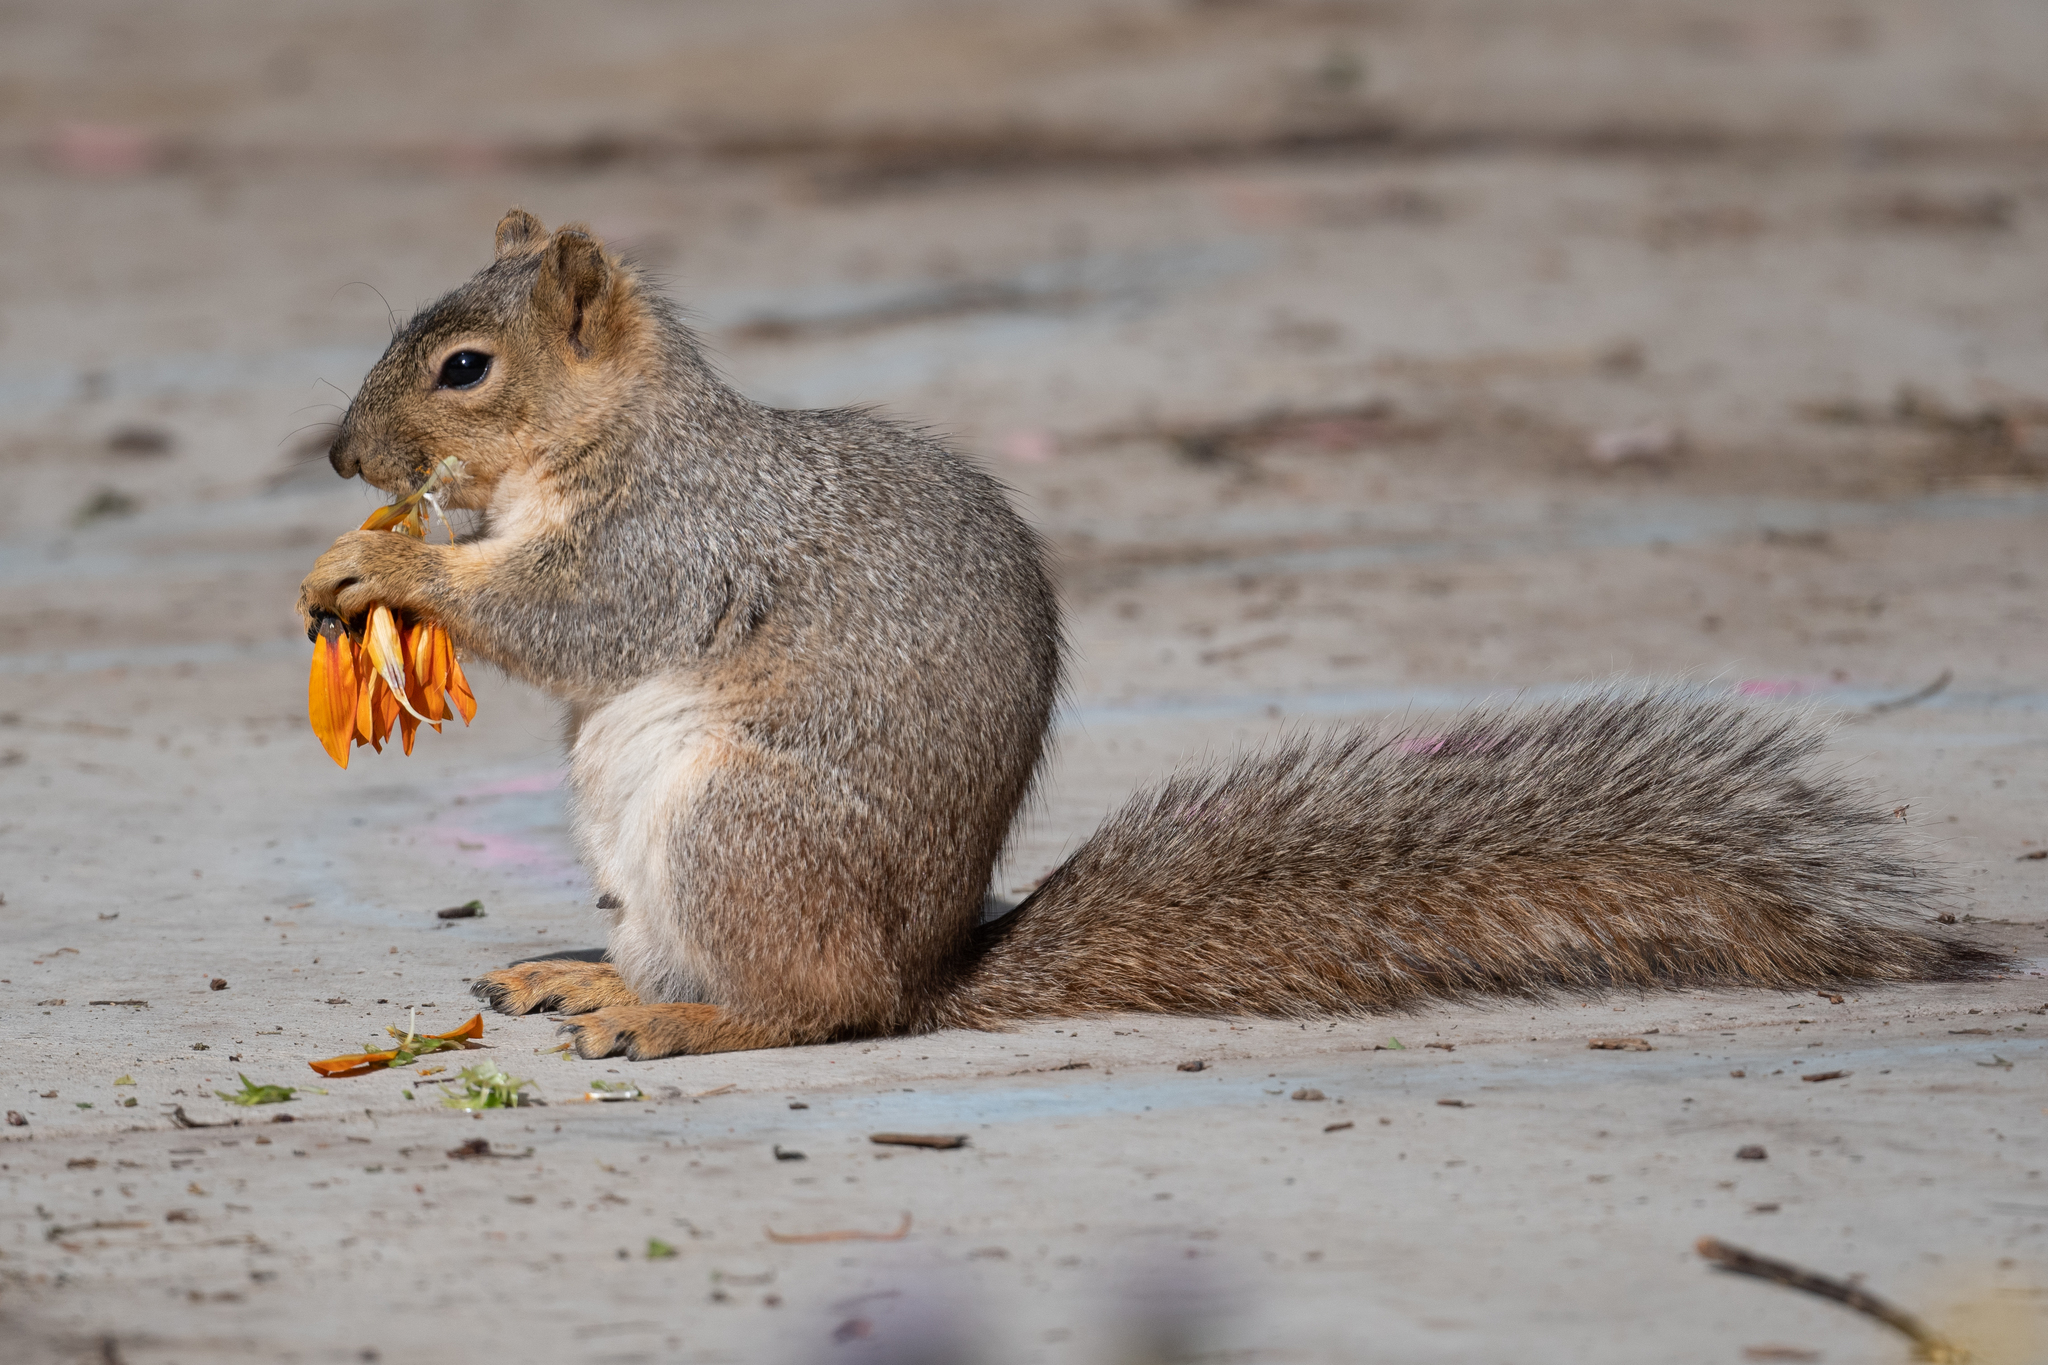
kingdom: Animalia
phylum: Chordata
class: Mammalia
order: Rodentia
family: Sciuridae
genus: Sciurus
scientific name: Sciurus niger
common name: Fox squirrel
